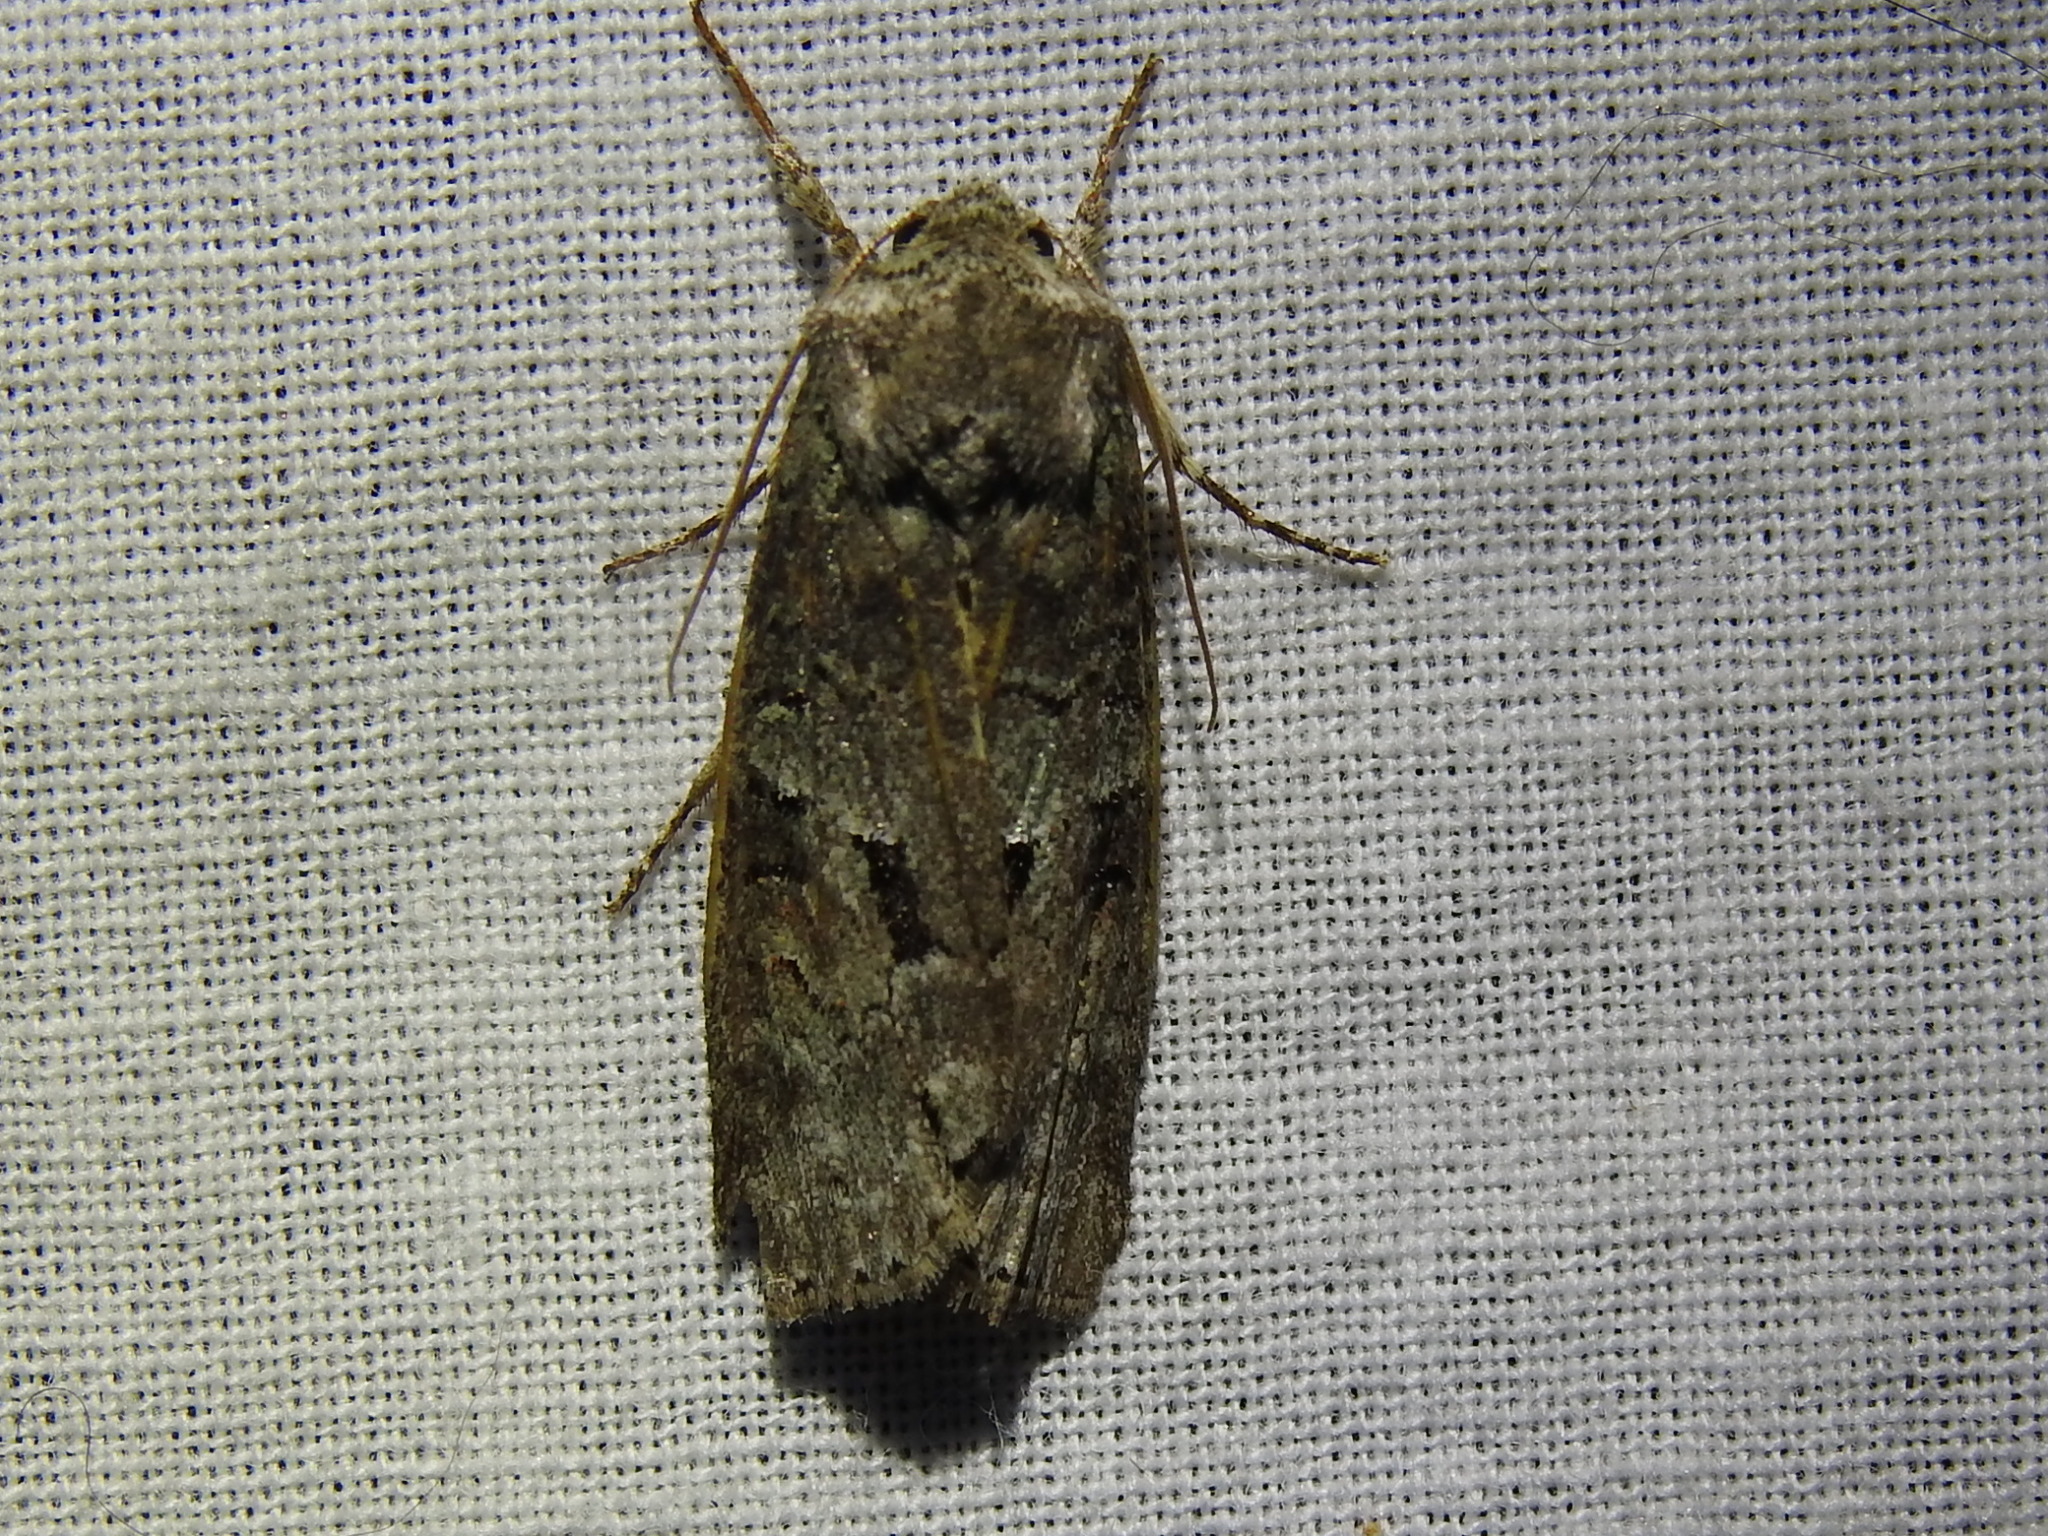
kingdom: Animalia
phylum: Arthropoda
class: Insecta
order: Lepidoptera
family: Noctuidae
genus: Egira
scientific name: Egira alternans
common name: Alternate woodling
